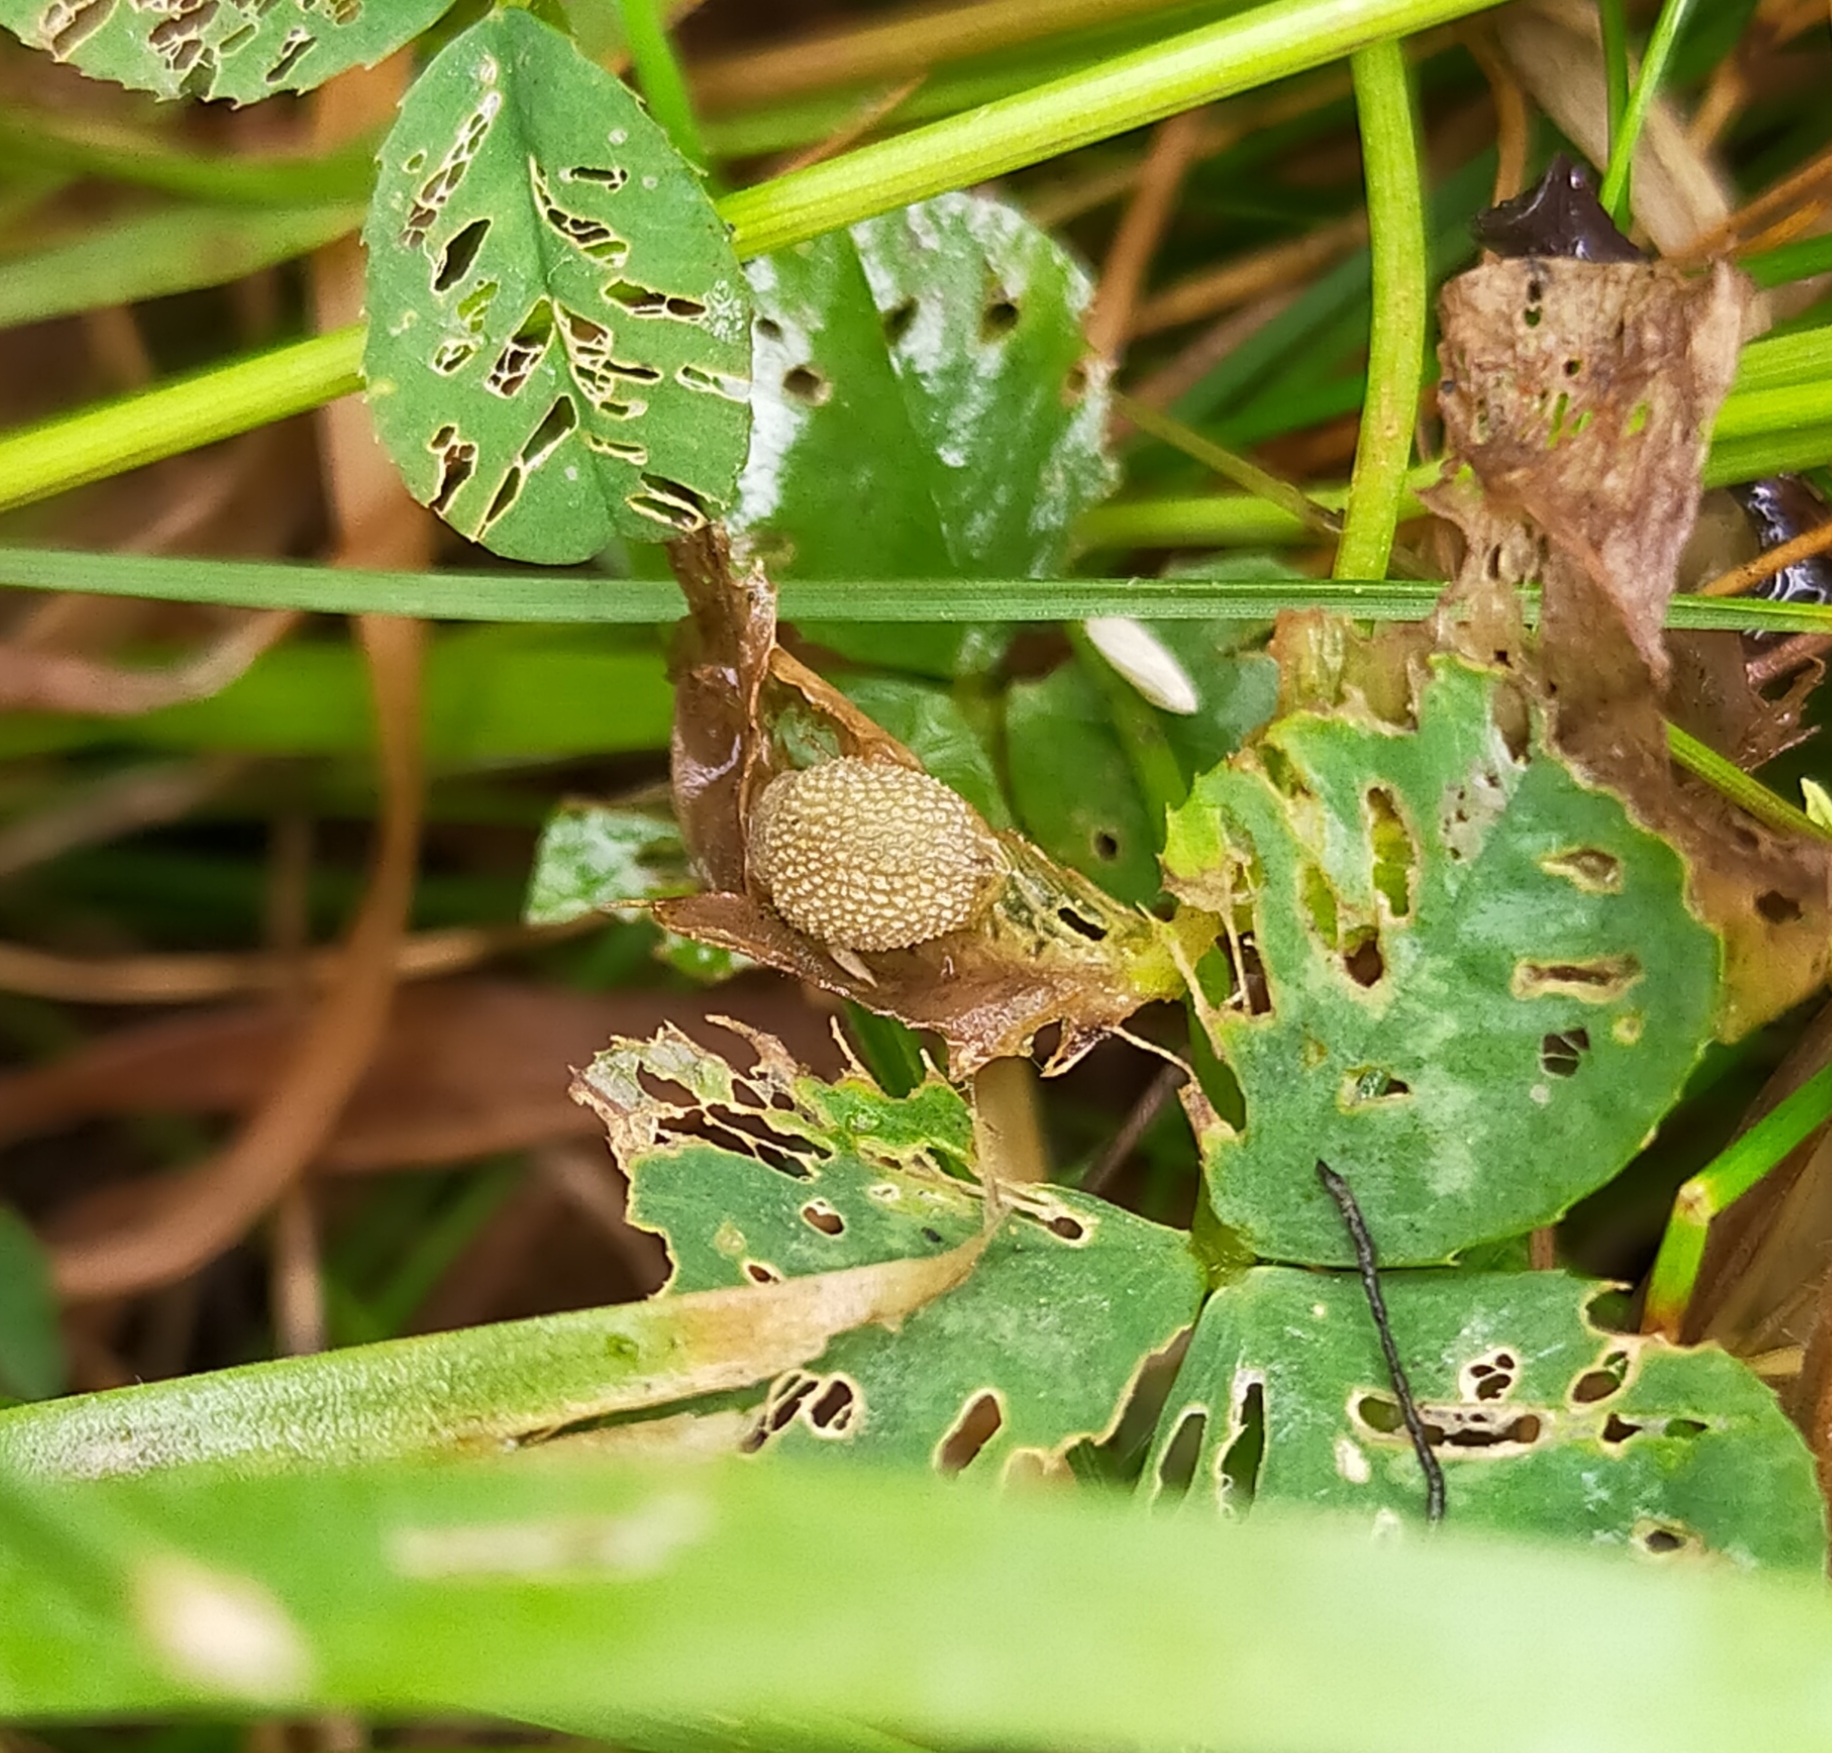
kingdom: Animalia
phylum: Mollusca
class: Gastropoda
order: Stylommatophora
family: Arionidae
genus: Arion
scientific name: Arion intermedius
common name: Hedgehog slug
